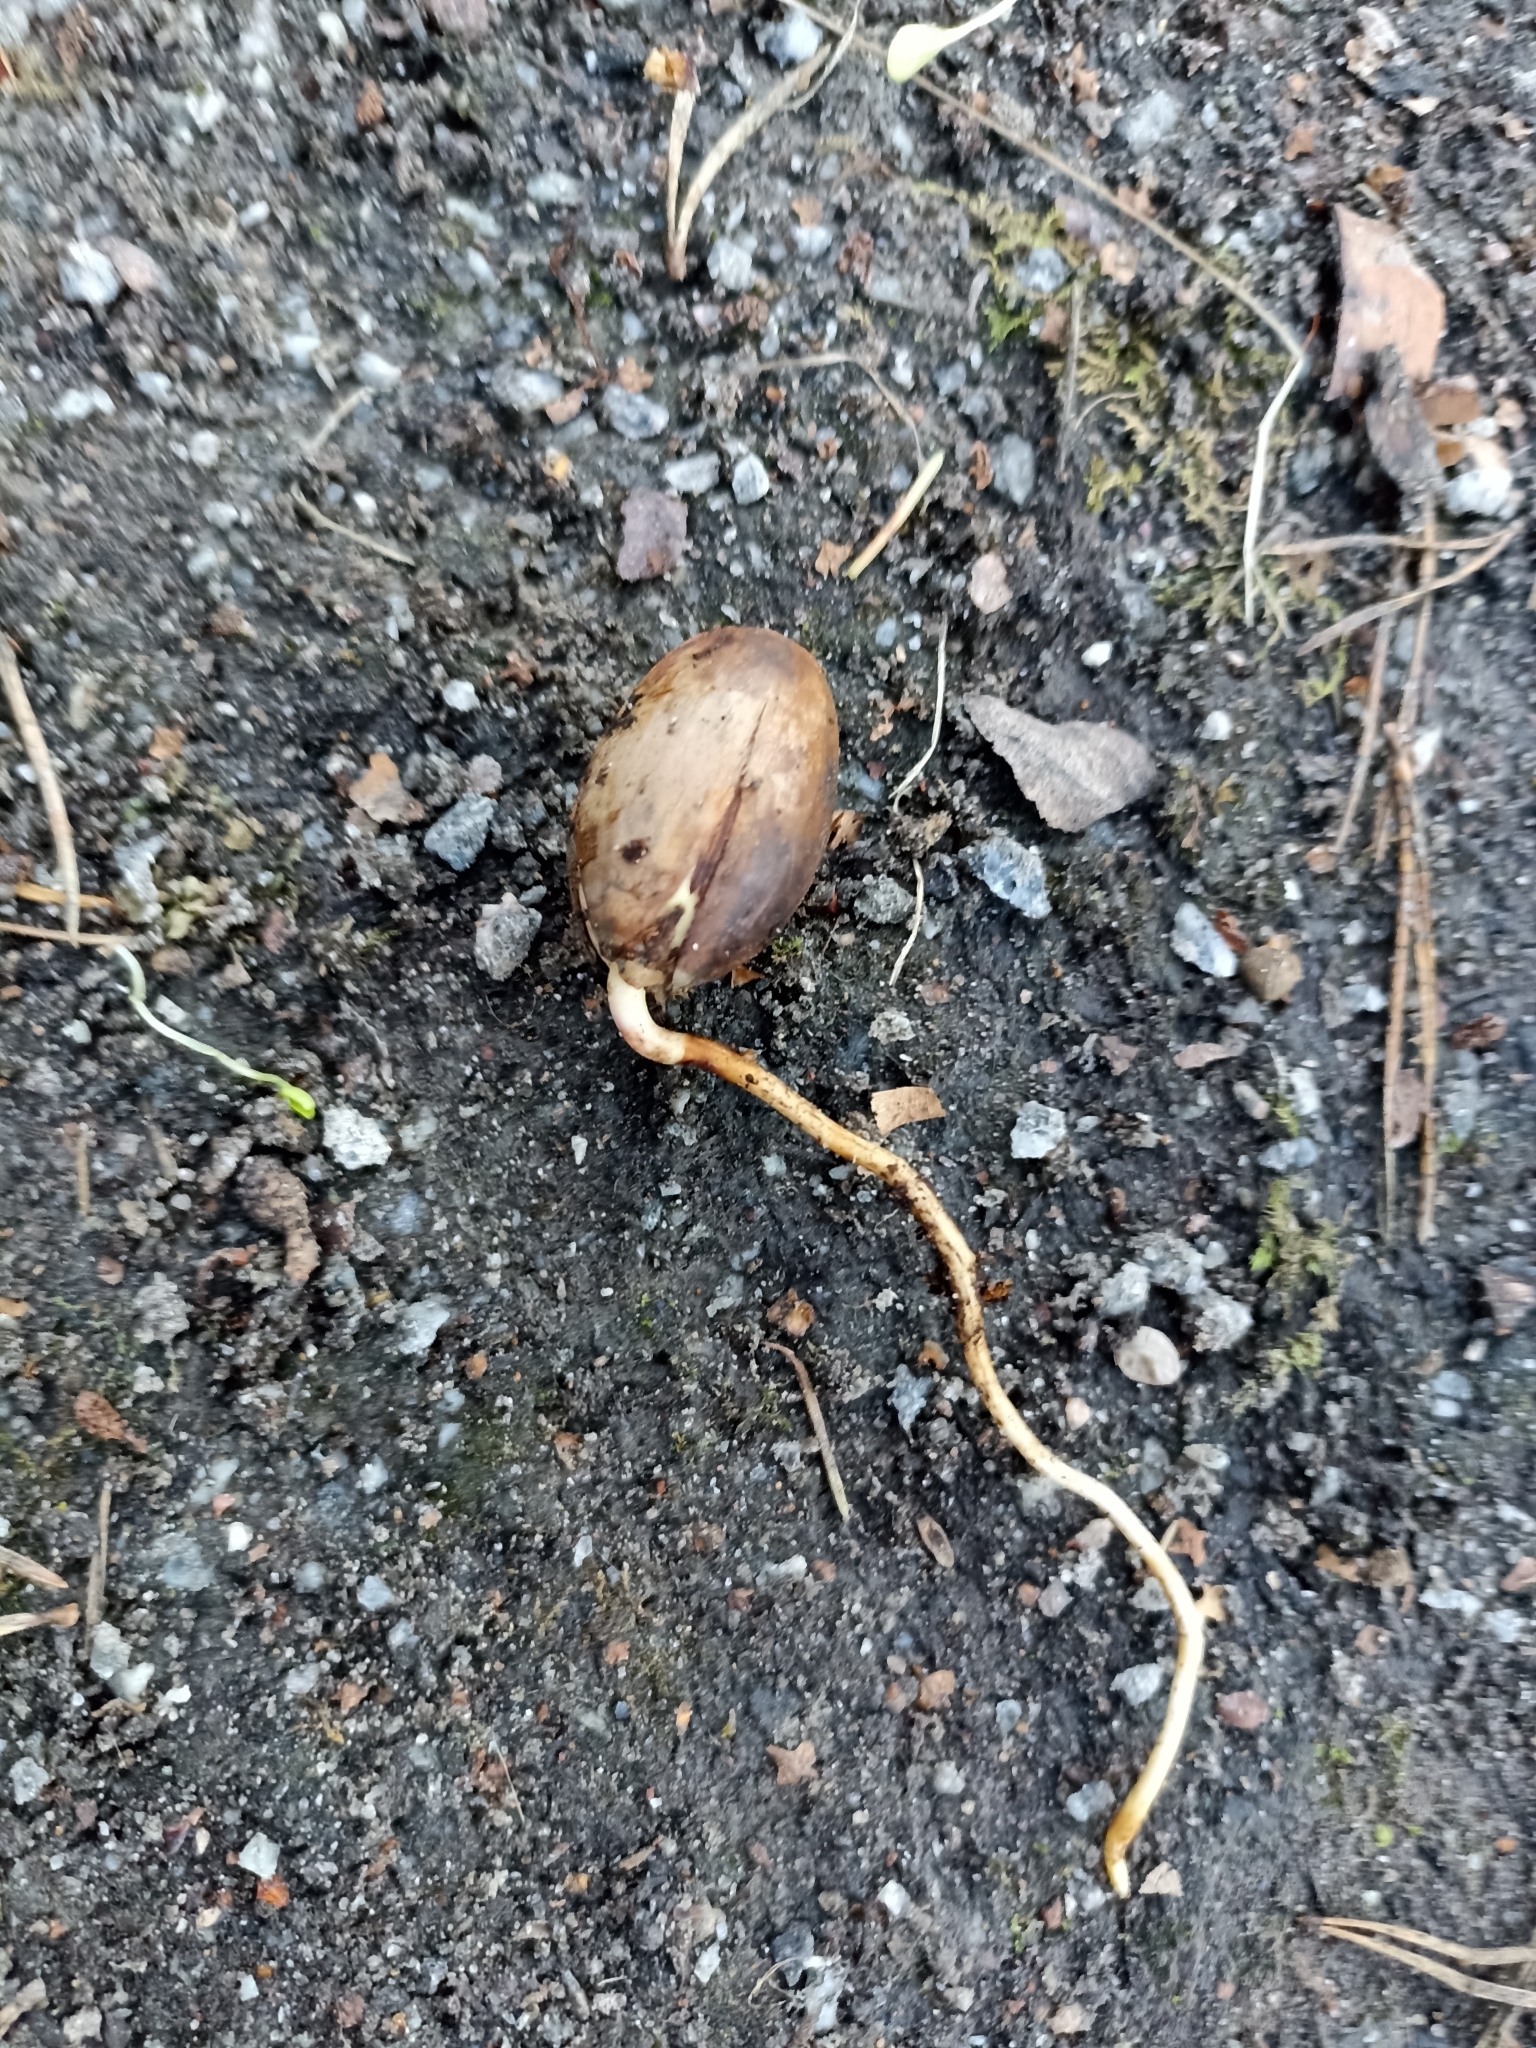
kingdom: Plantae
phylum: Tracheophyta
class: Magnoliopsida
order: Fagales
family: Fagaceae
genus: Quercus
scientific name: Quercus robur
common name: Pedunculate oak
